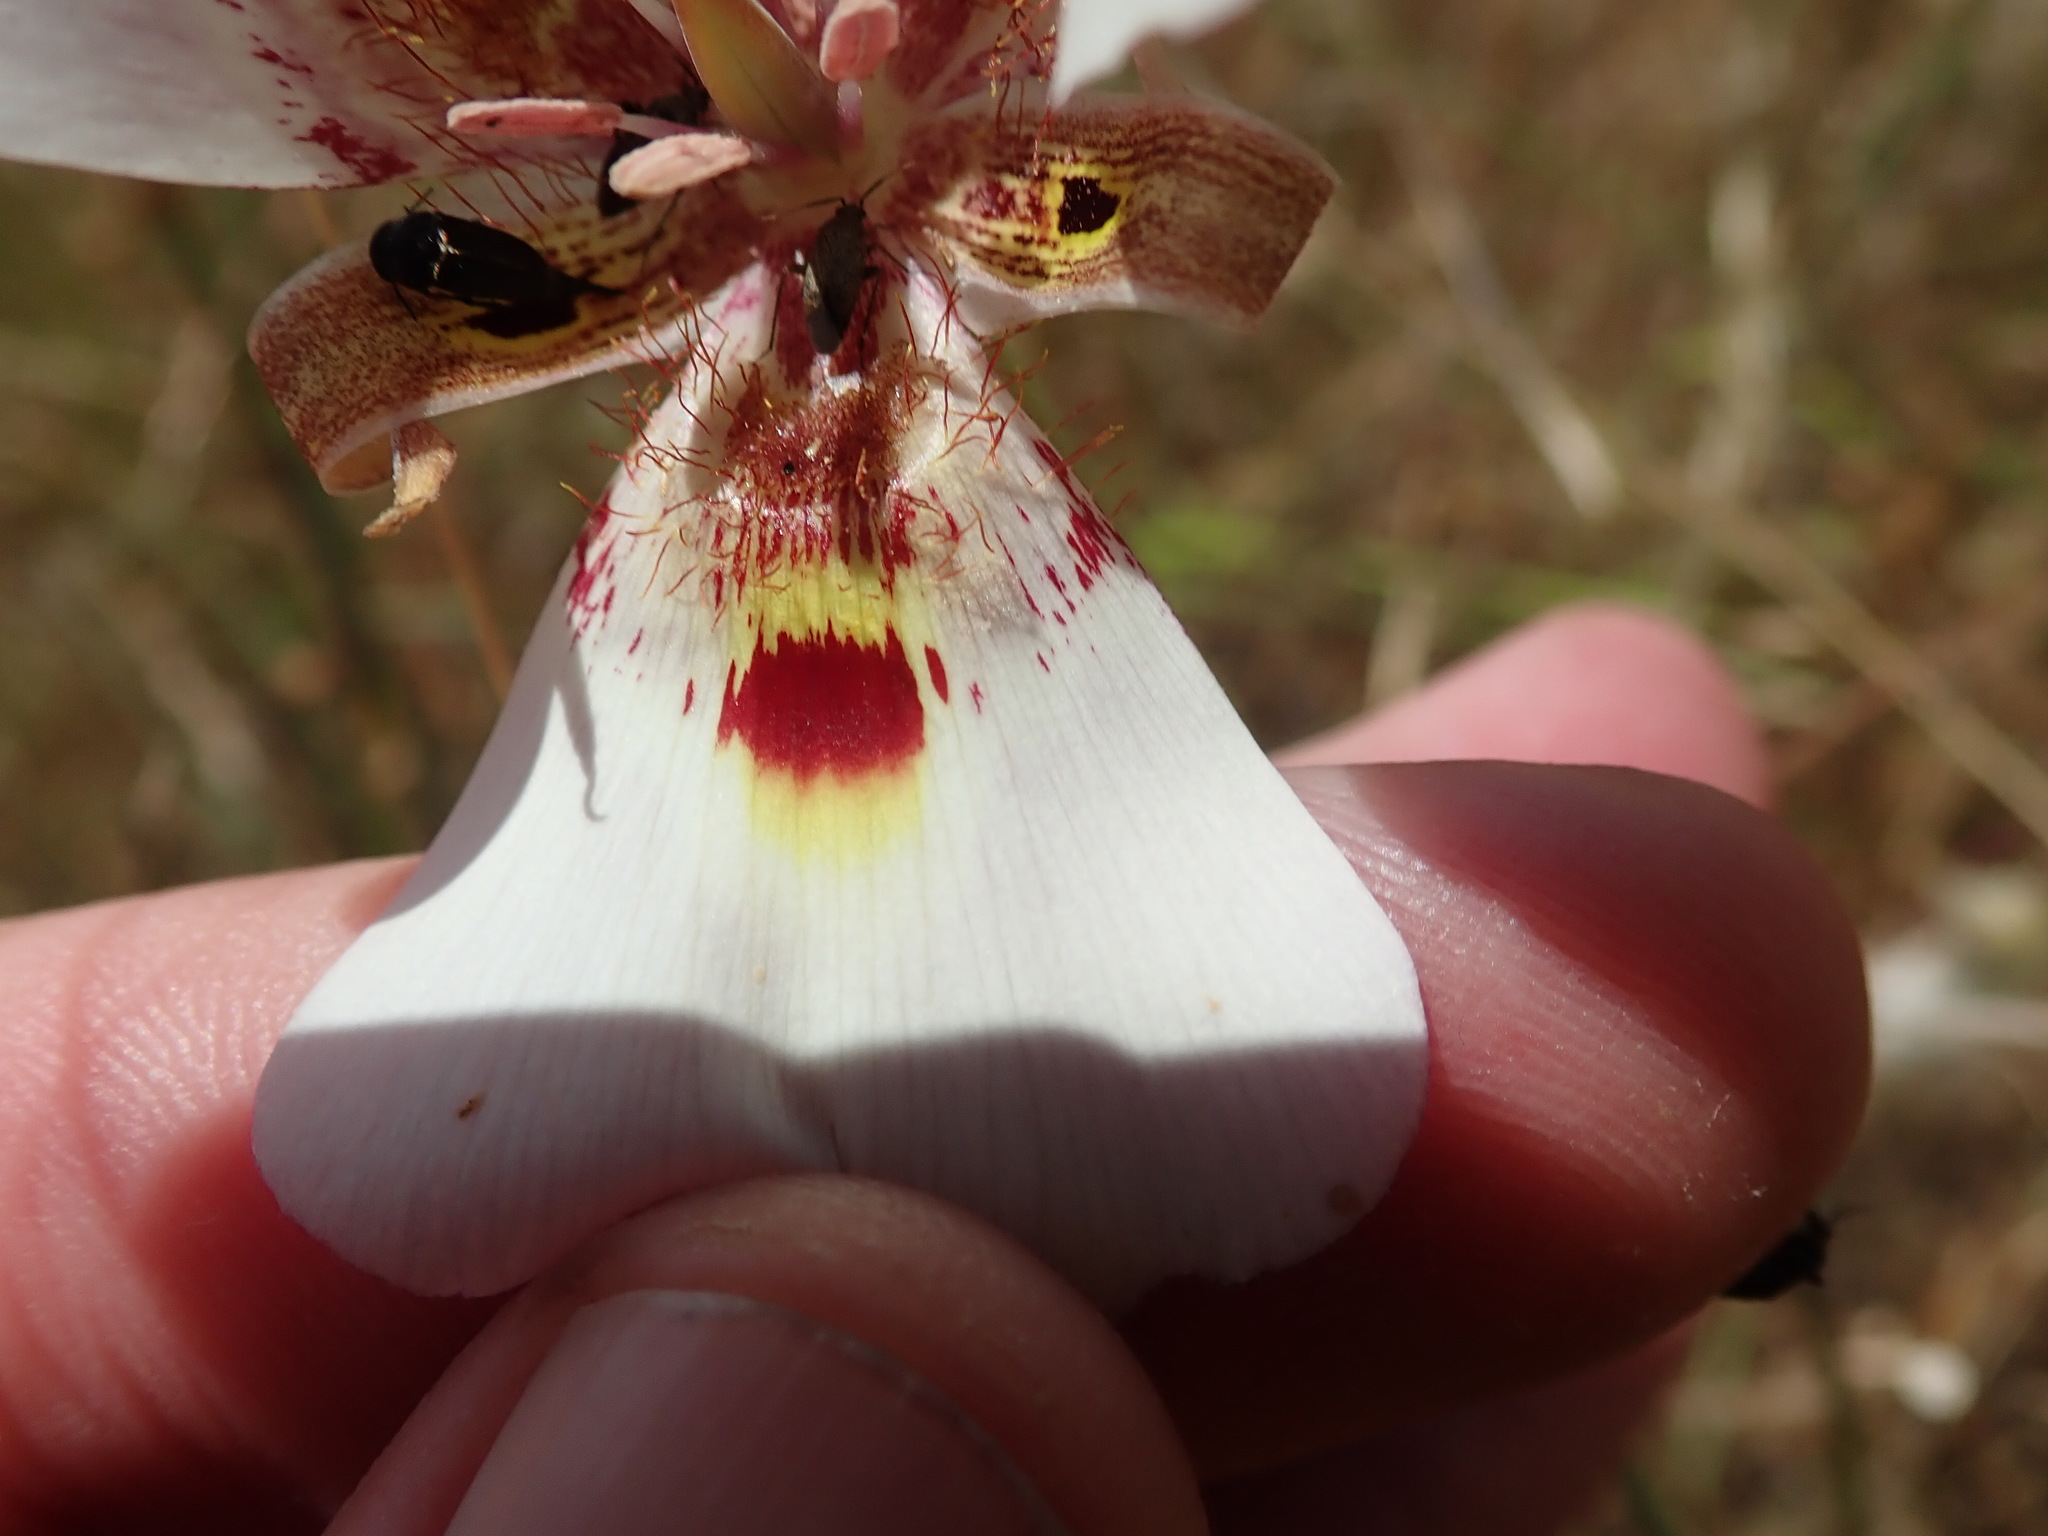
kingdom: Plantae
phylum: Tracheophyta
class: Liliopsida
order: Liliales
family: Liliaceae
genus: Calochortus
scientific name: Calochortus argillosus
